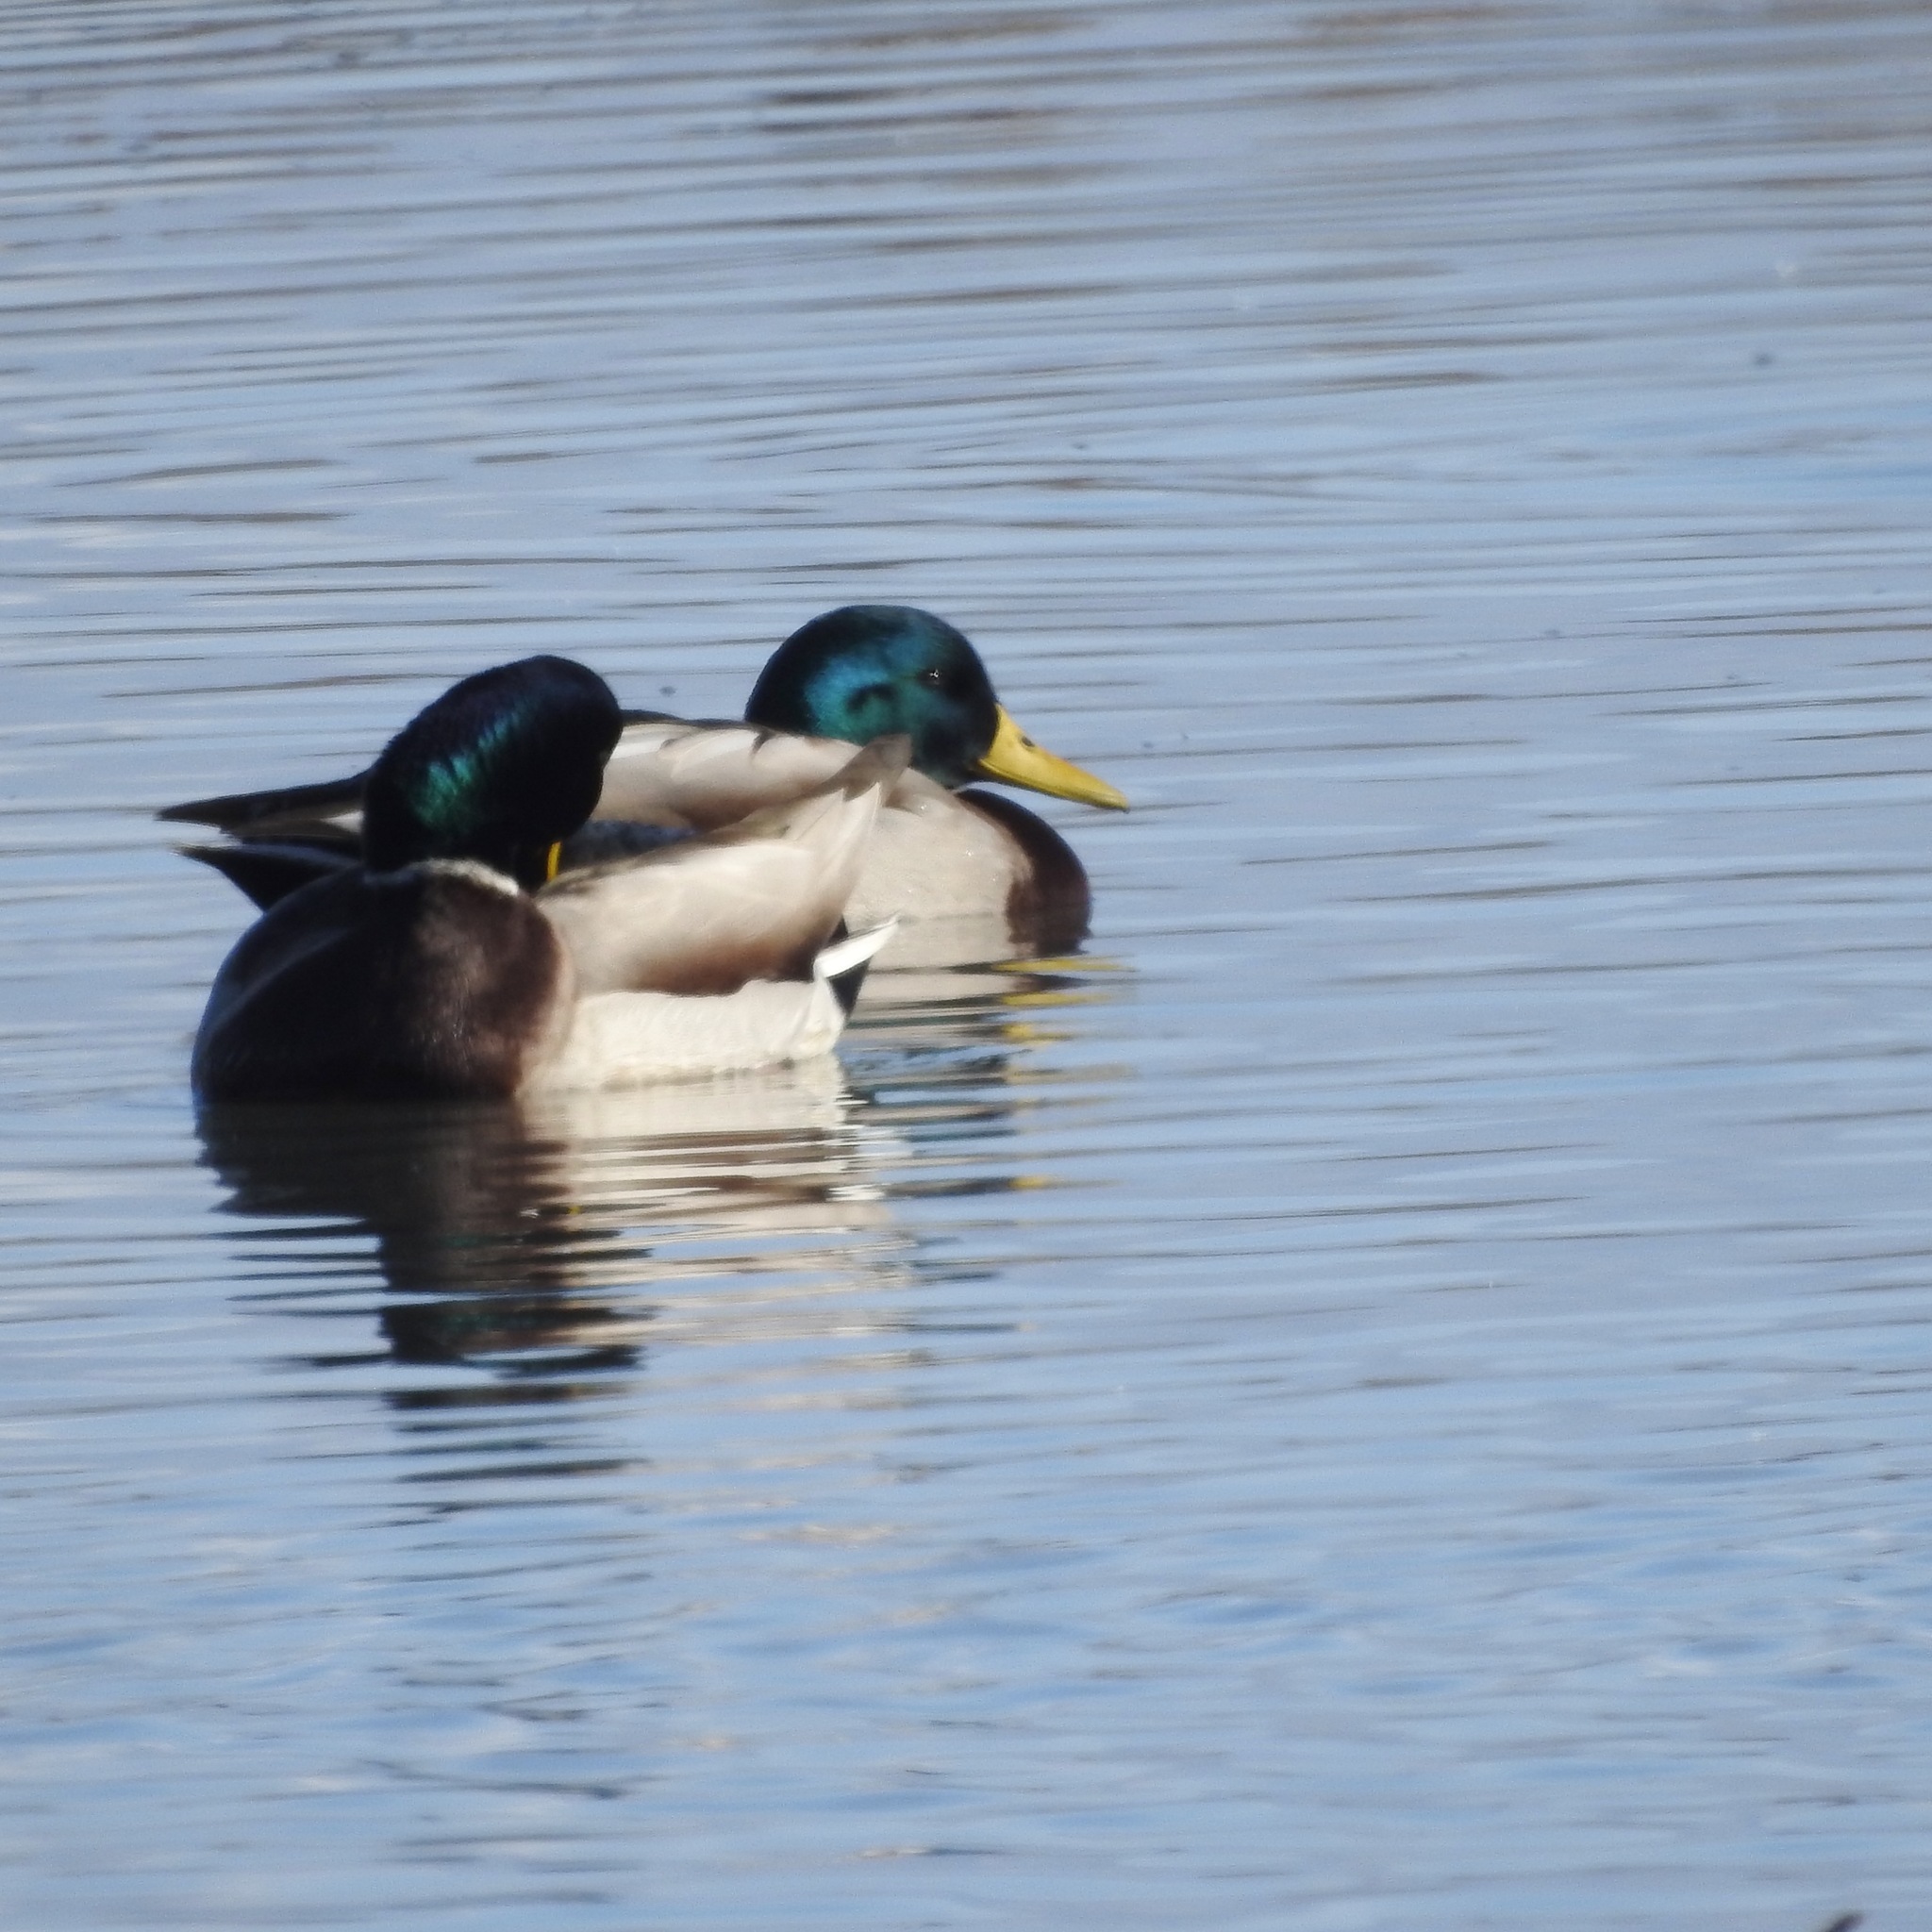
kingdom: Animalia
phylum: Chordata
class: Aves
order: Anseriformes
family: Anatidae
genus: Anas
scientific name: Anas platyrhynchos
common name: Mallard
